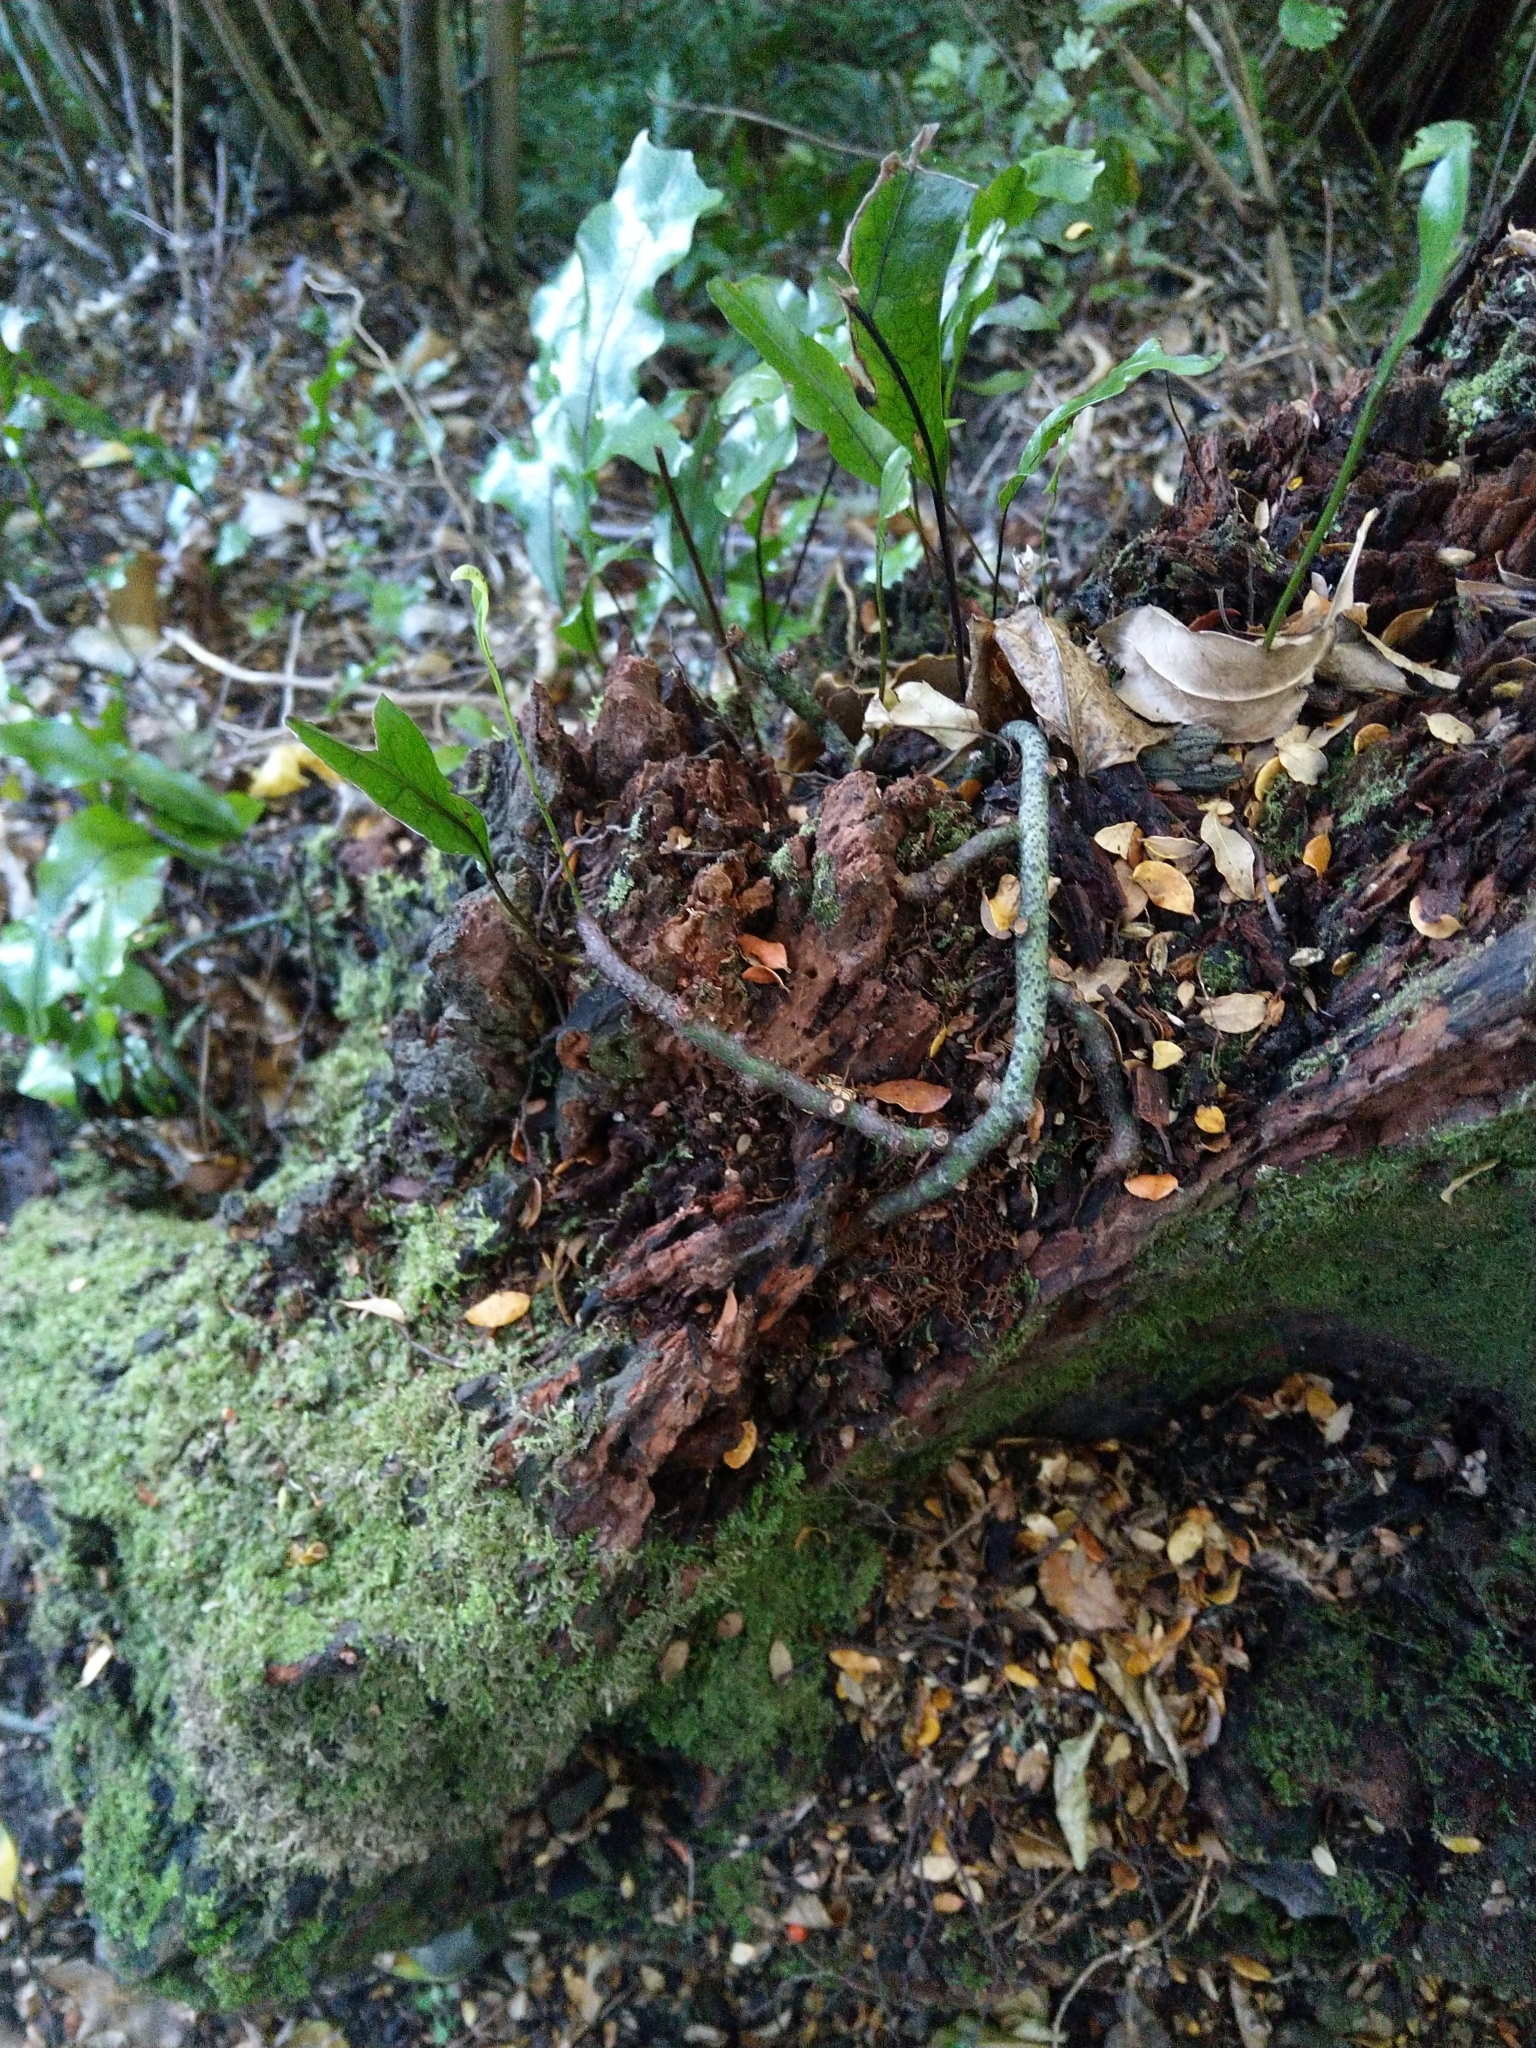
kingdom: Plantae
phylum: Tracheophyta
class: Polypodiopsida
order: Polypodiales
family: Polypodiaceae
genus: Lecanopteris
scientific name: Lecanopteris pustulata
